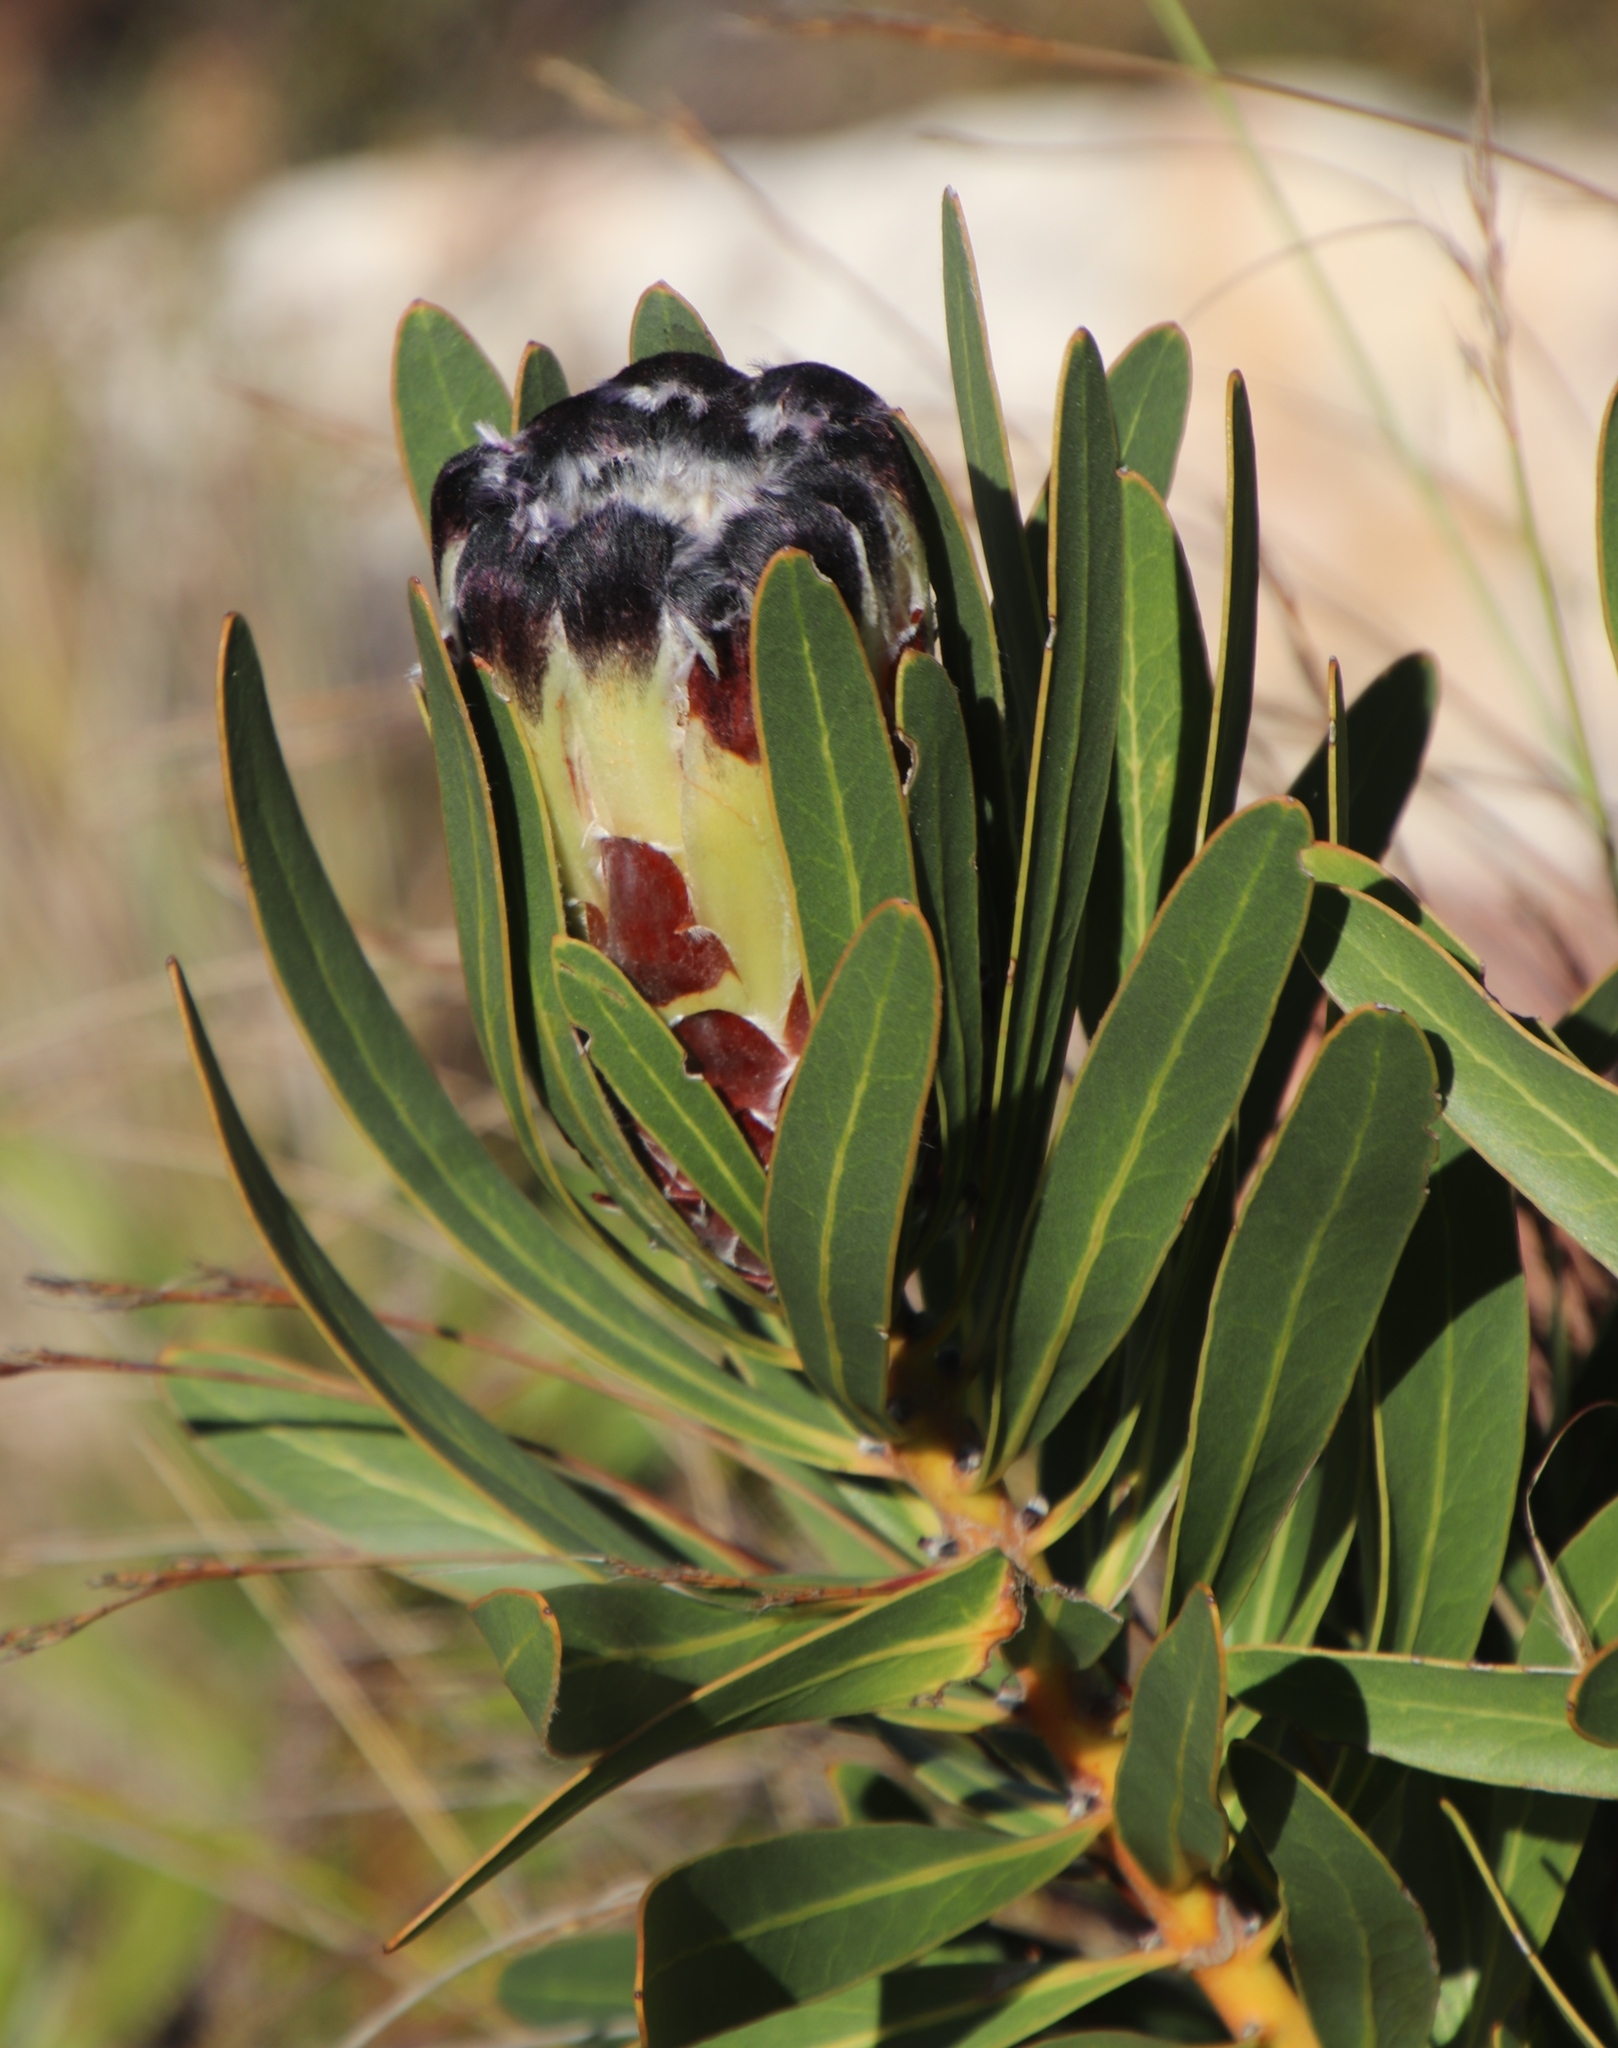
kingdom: Plantae
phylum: Tracheophyta
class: Magnoliopsida
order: Proteales
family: Proteaceae
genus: Protea
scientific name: Protea lepidocarpodendron
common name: Black-bearded protea
